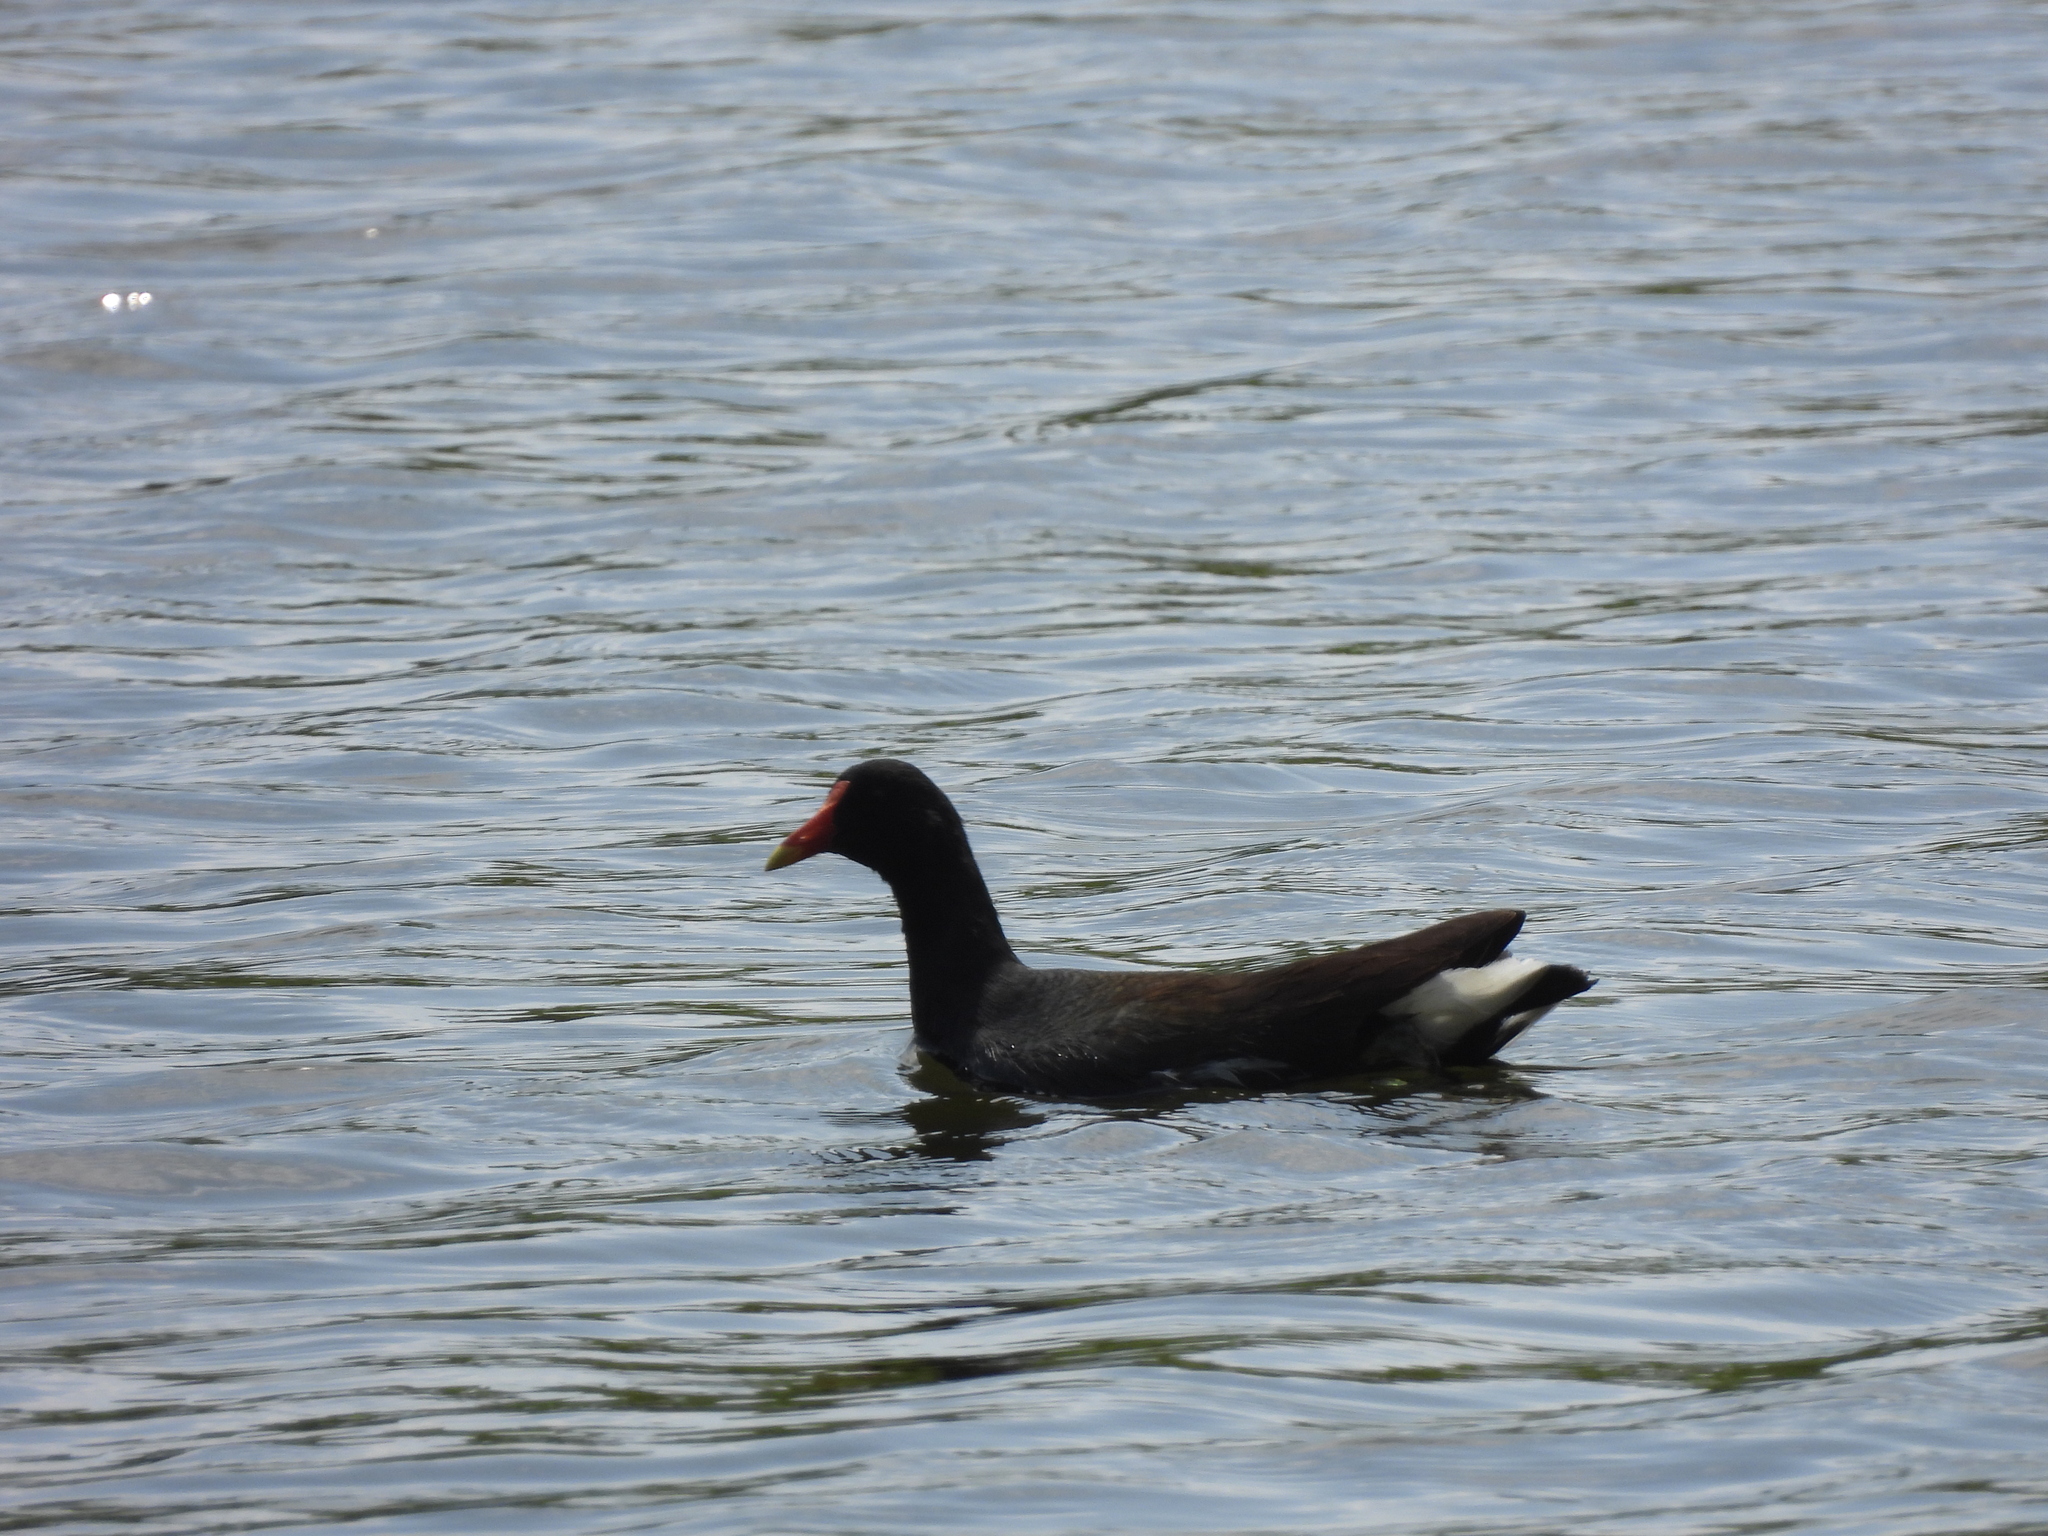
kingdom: Animalia
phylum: Chordata
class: Aves
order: Gruiformes
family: Rallidae
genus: Gallinula
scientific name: Gallinula chloropus
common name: Common moorhen
